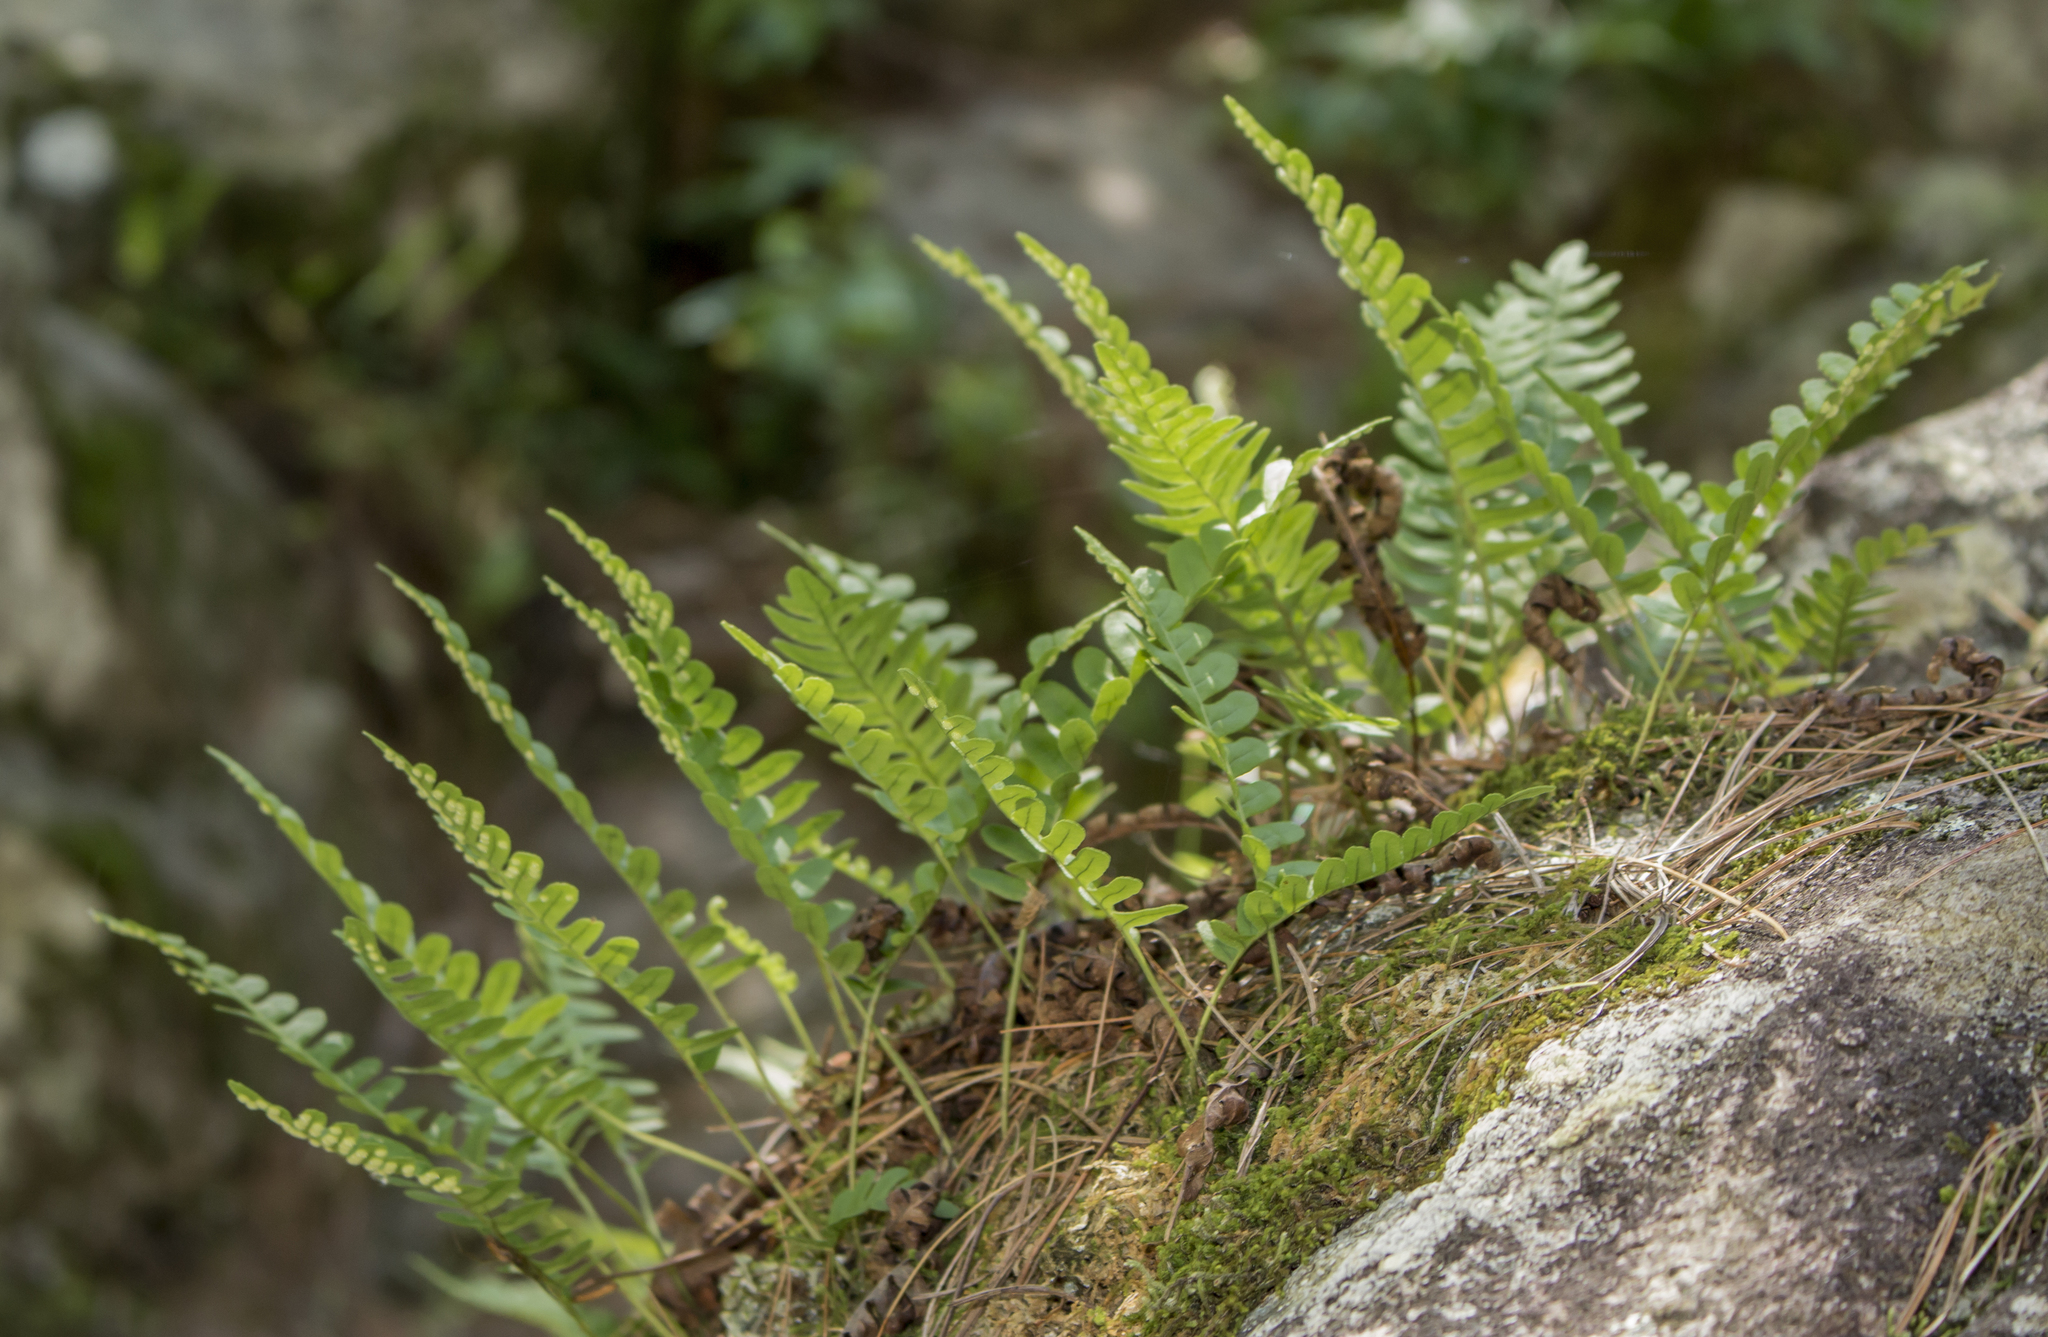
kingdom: Plantae
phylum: Tracheophyta
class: Polypodiopsida
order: Polypodiales
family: Polypodiaceae
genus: Polypodium
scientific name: Polypodium virginianum
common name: American wall fern
